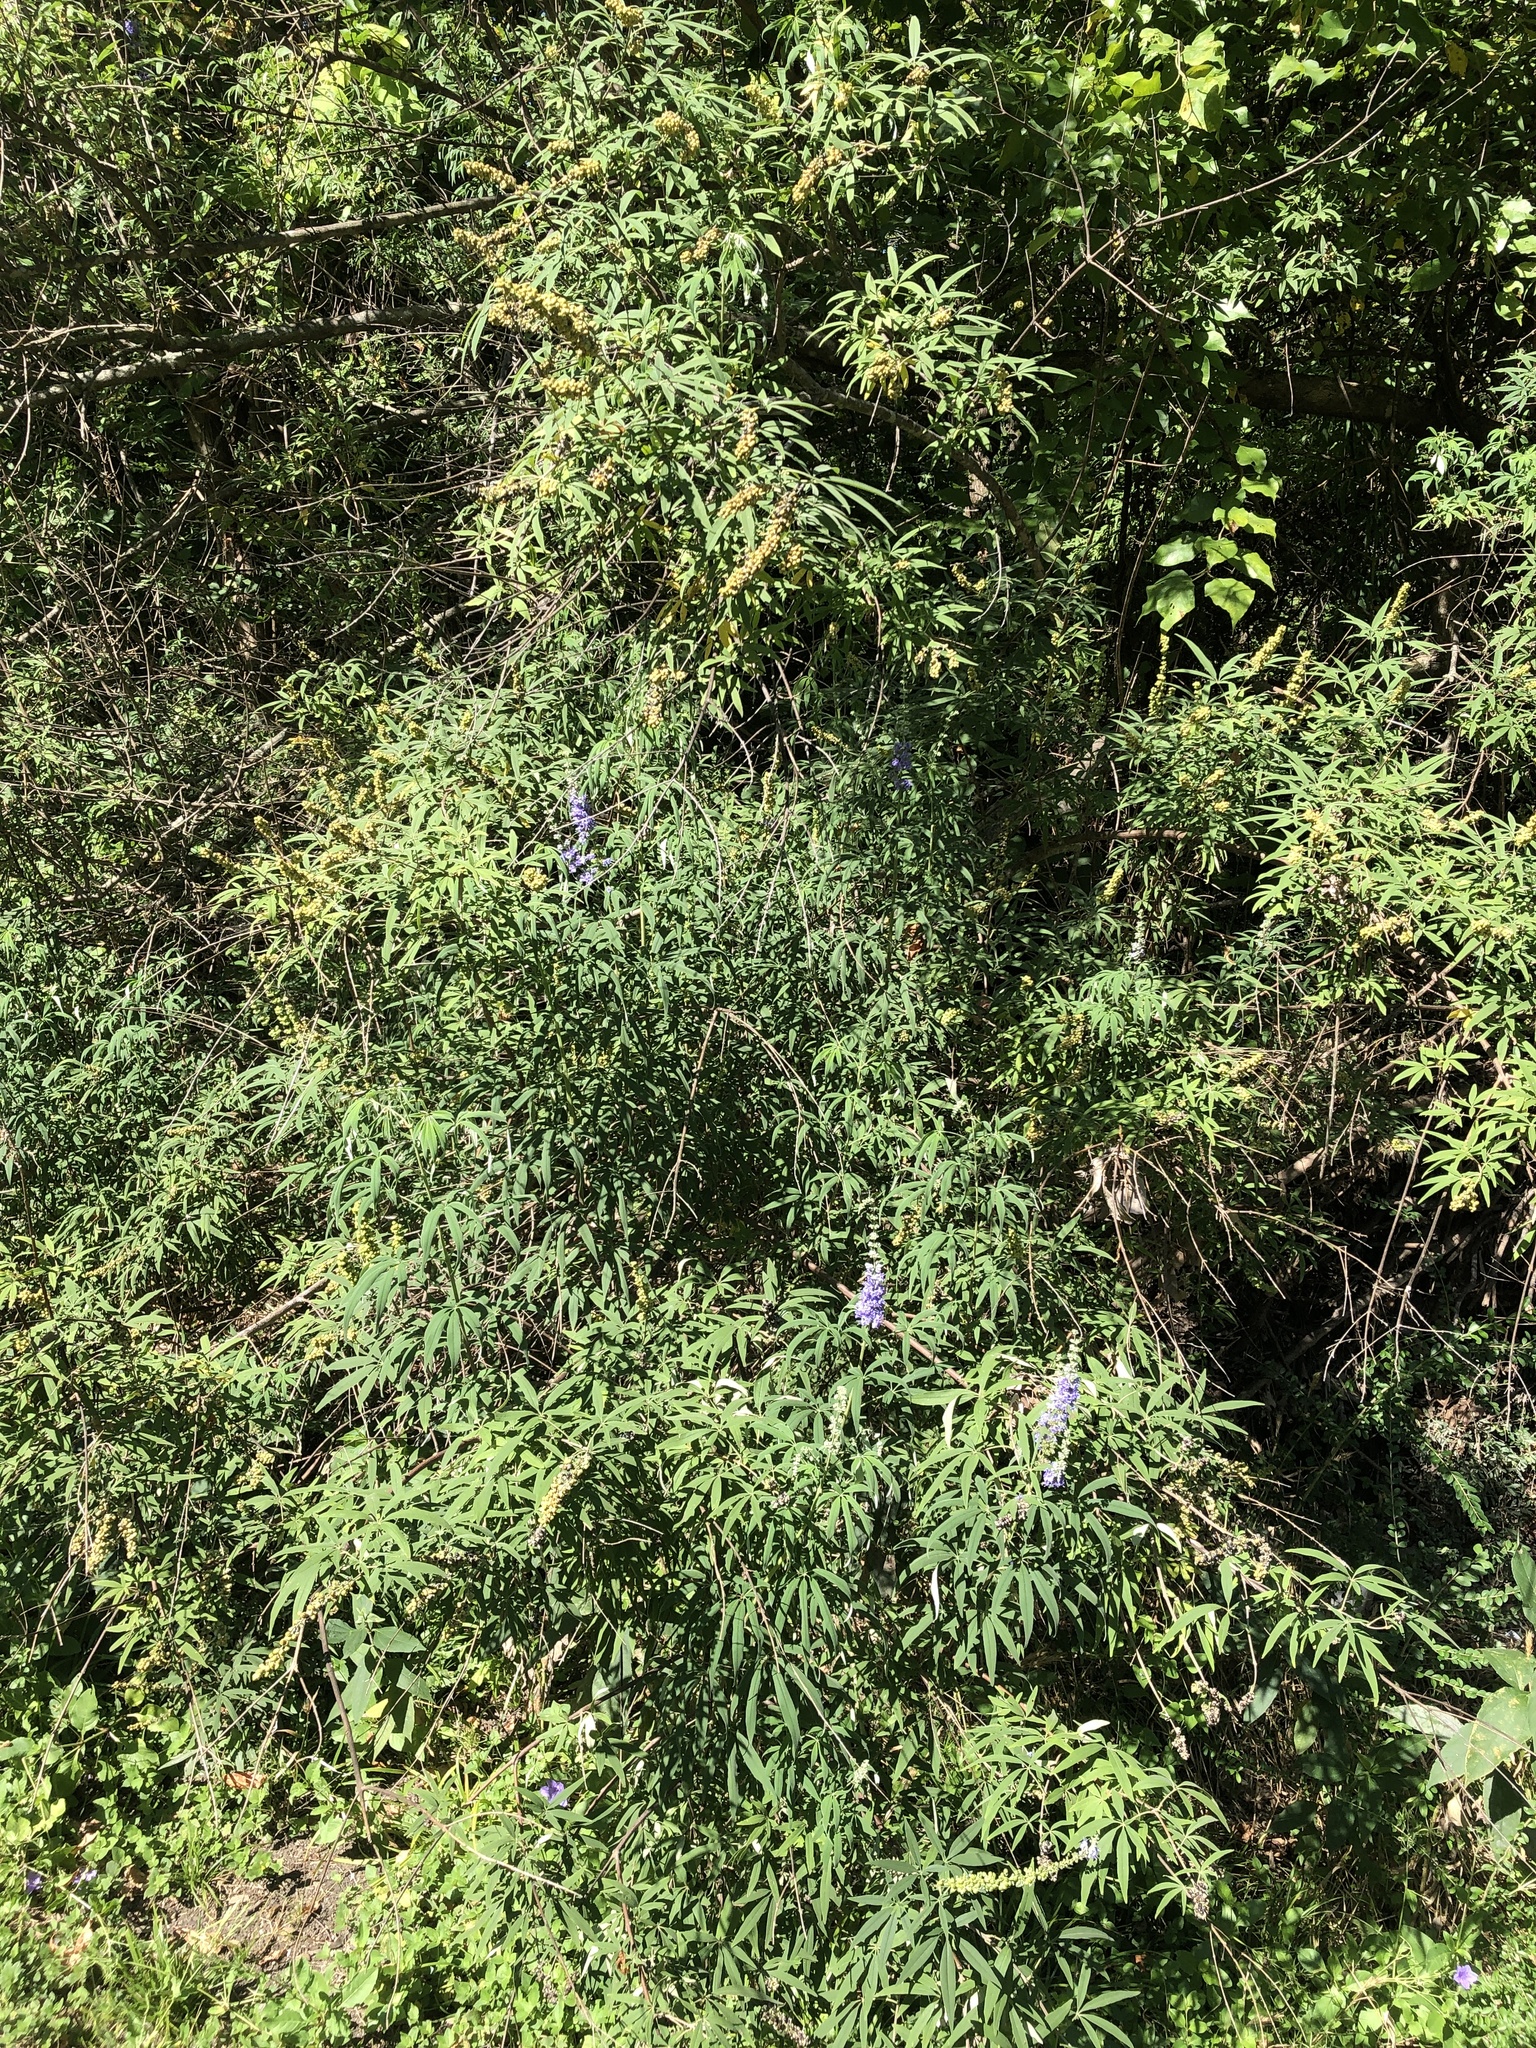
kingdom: Plantae
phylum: Tracheophyta
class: Magnoliopsida
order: Lamiales
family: Lamiaceae
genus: Vitex
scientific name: Vitex agnus-castus
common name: Chasteberry
